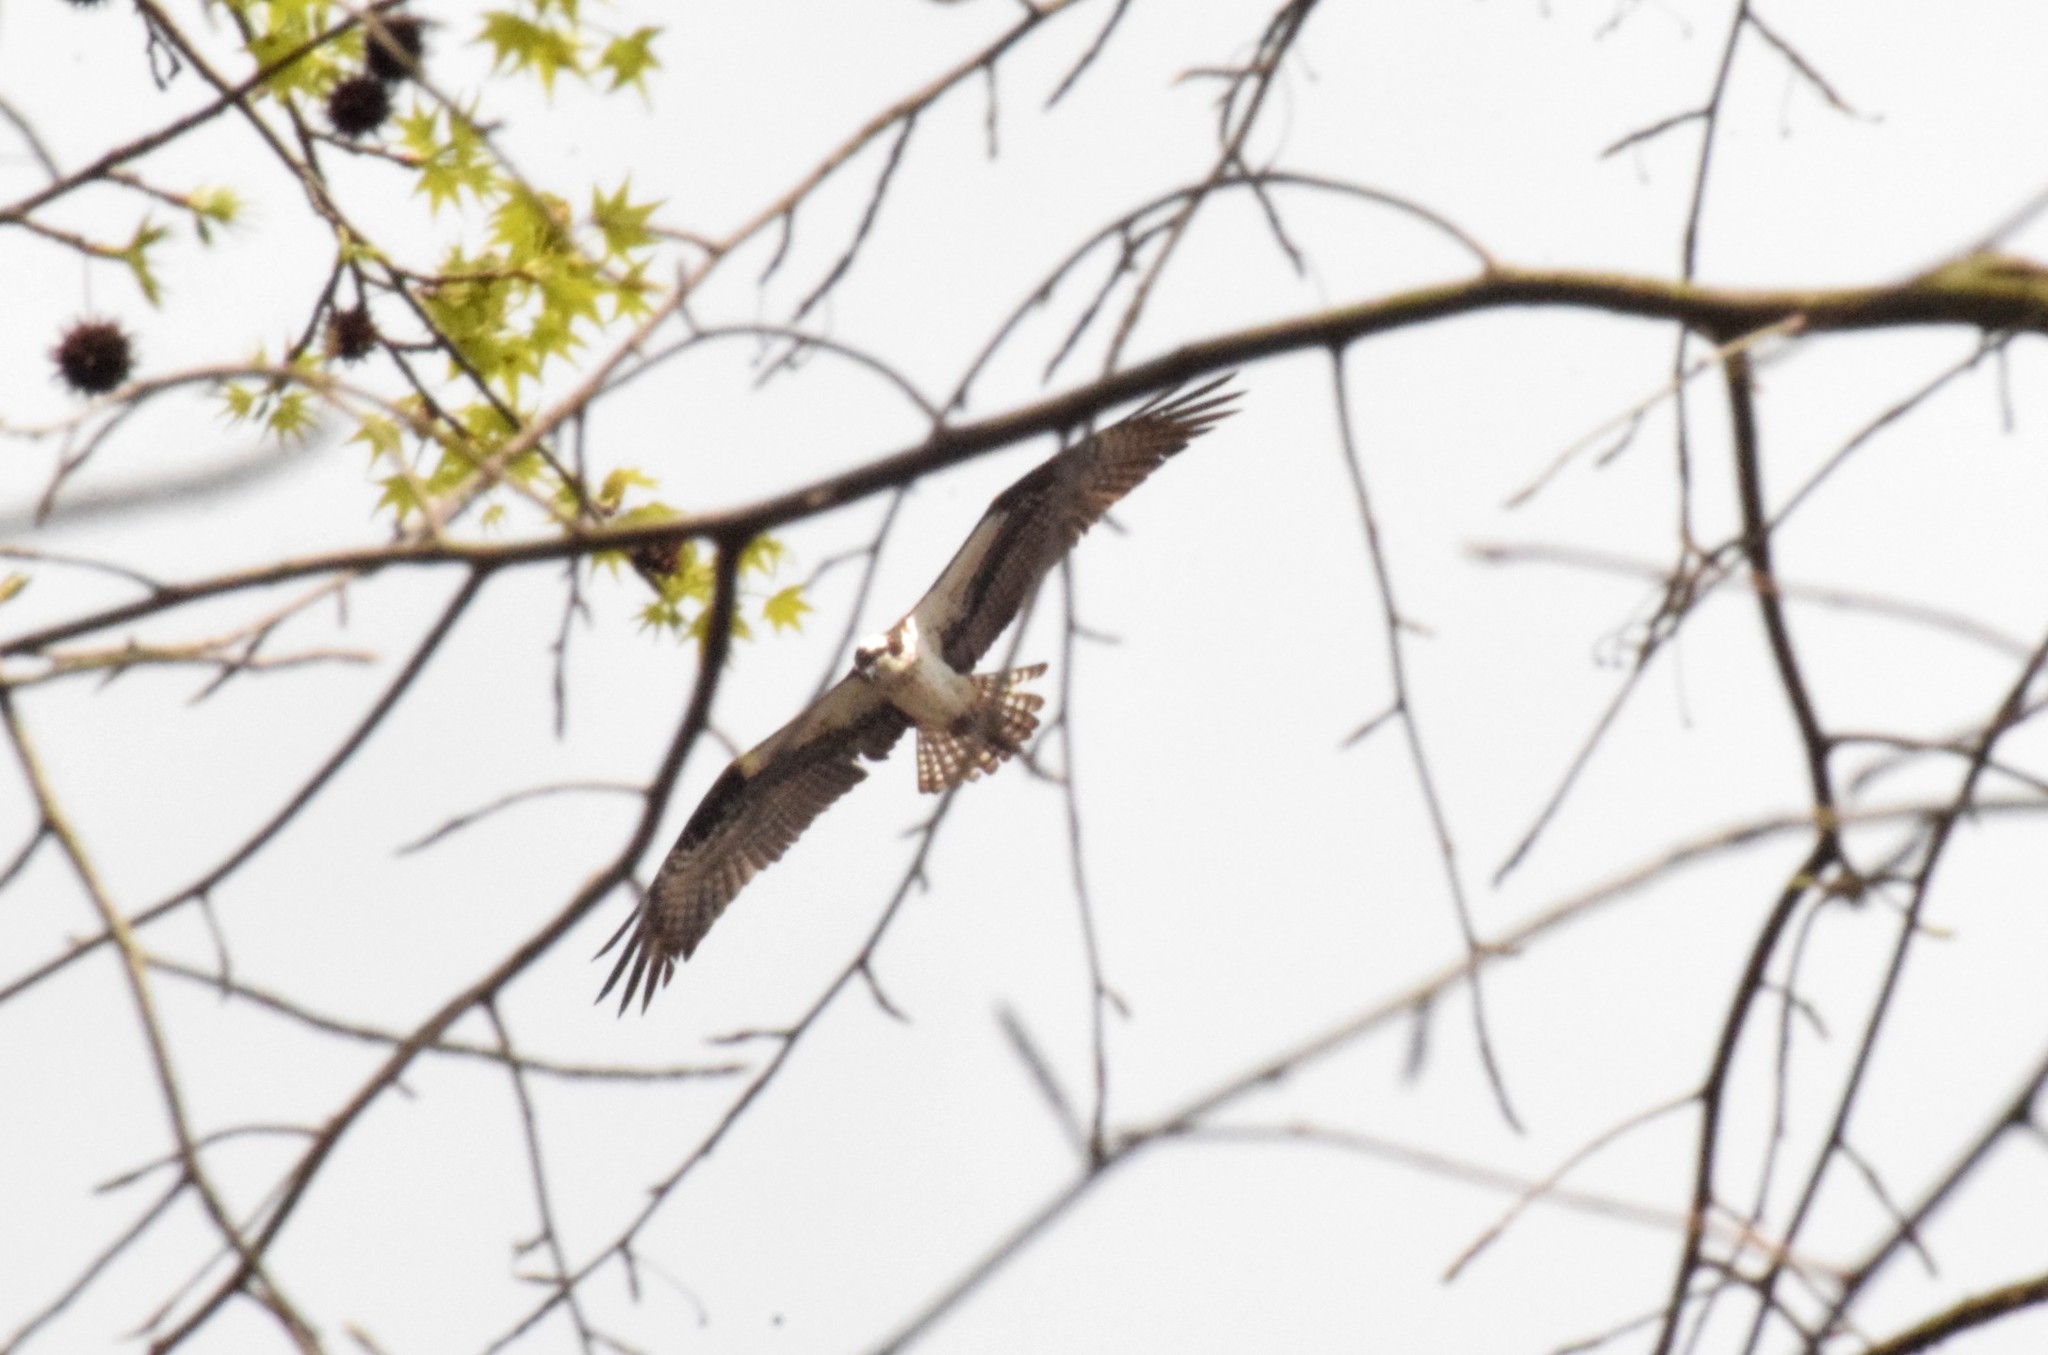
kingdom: Animalia
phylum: Chordata
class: Aves
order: Accipitriformes
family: Pandionidae
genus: Pandion
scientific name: Pandion haliaetus
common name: Osprey
